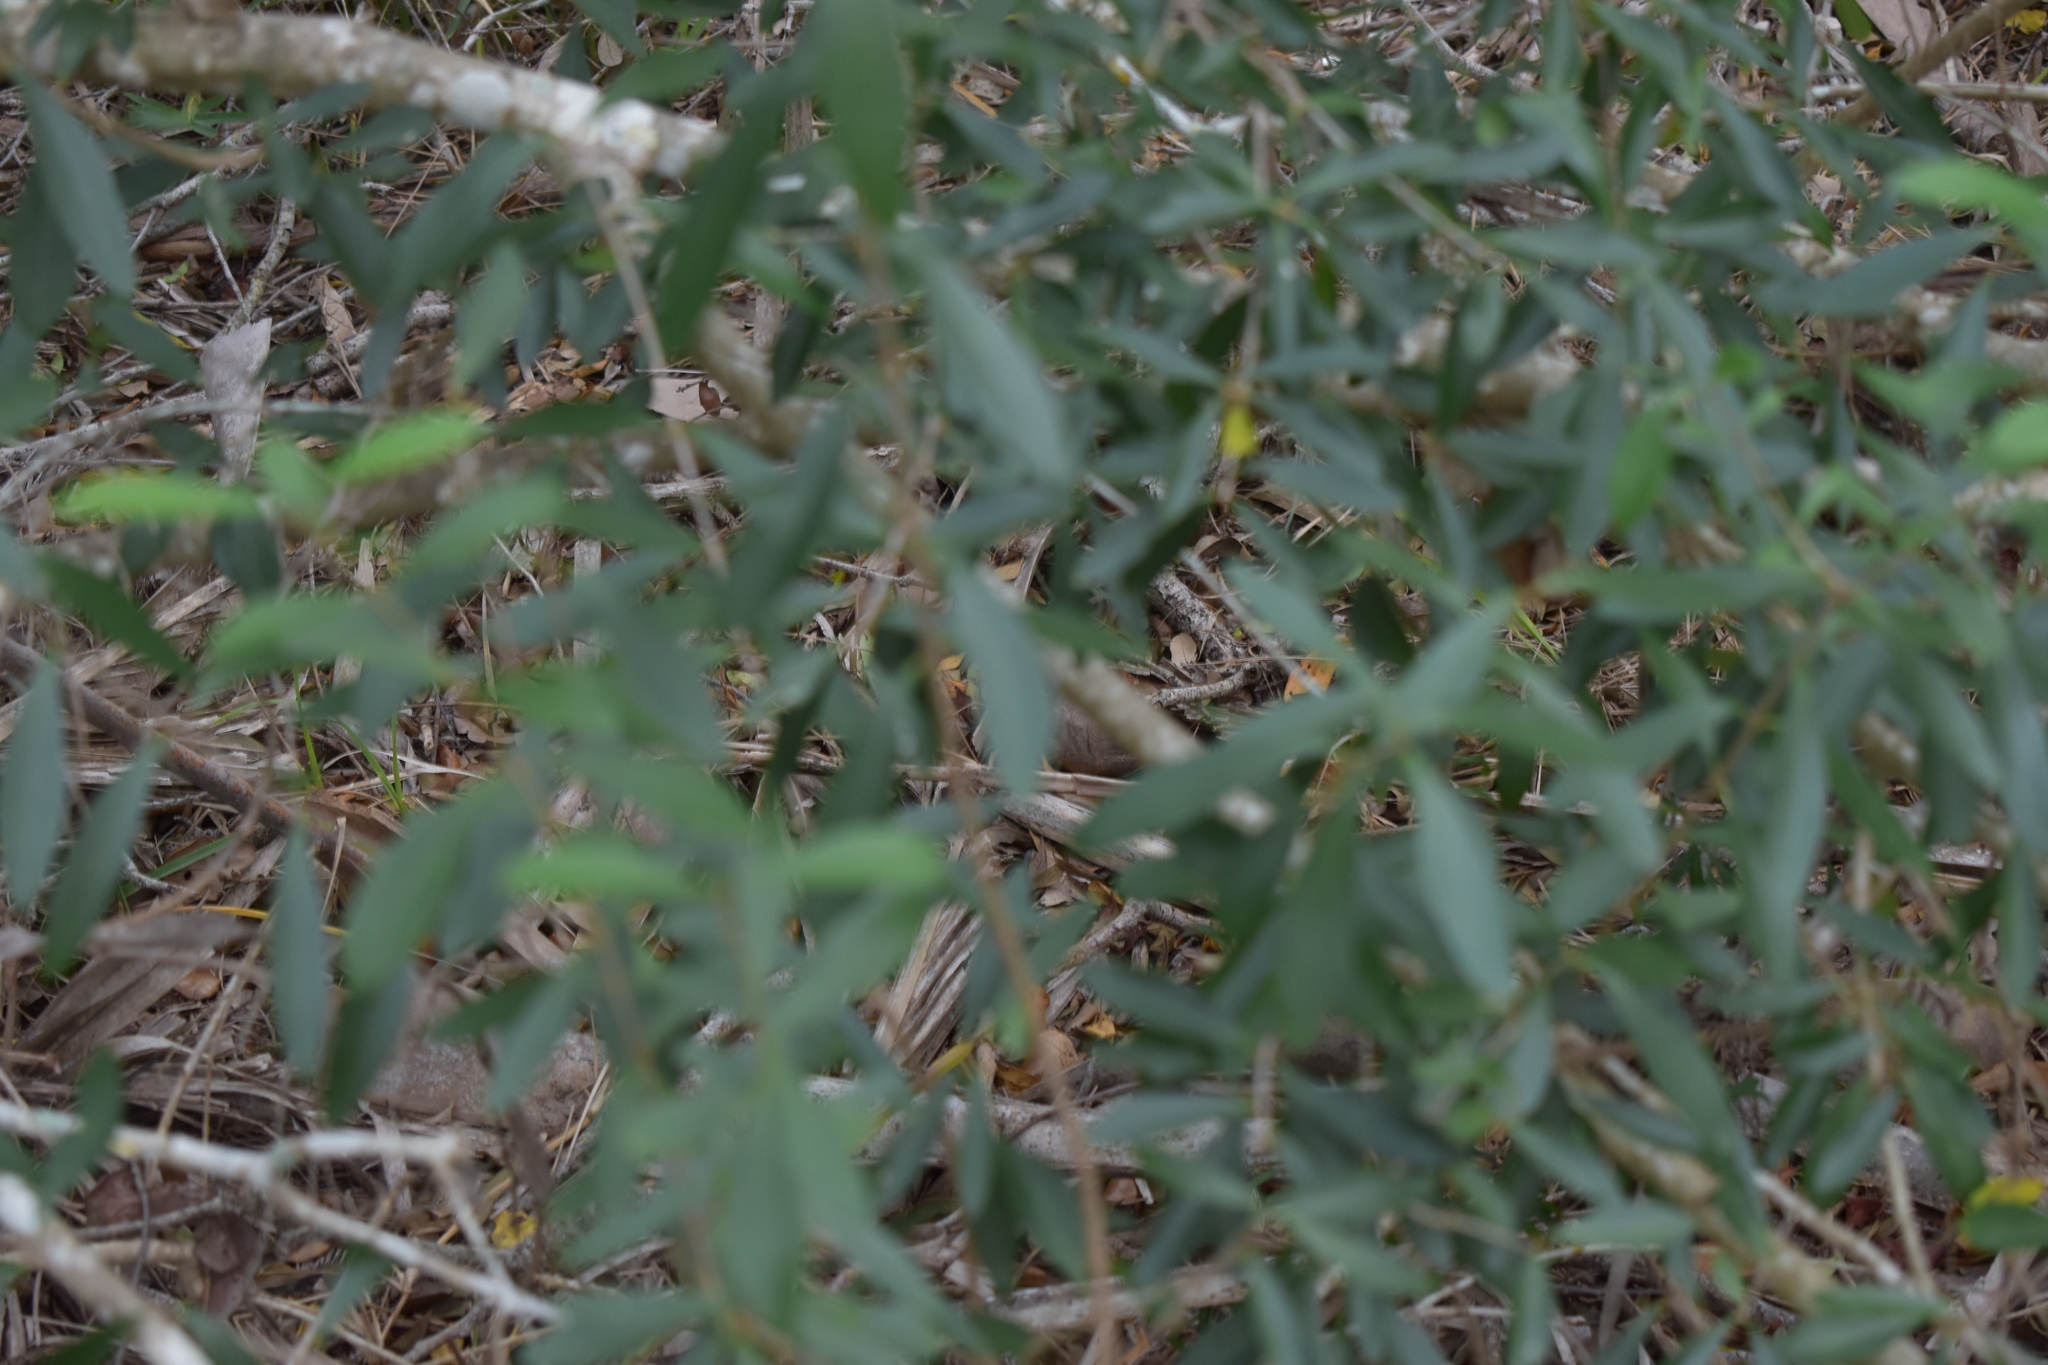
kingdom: Plantae
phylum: Tracheophyta
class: Magnoliopsida
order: Lamiales
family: Oleaceae
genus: Forestiera
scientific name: Forestiera segregata
